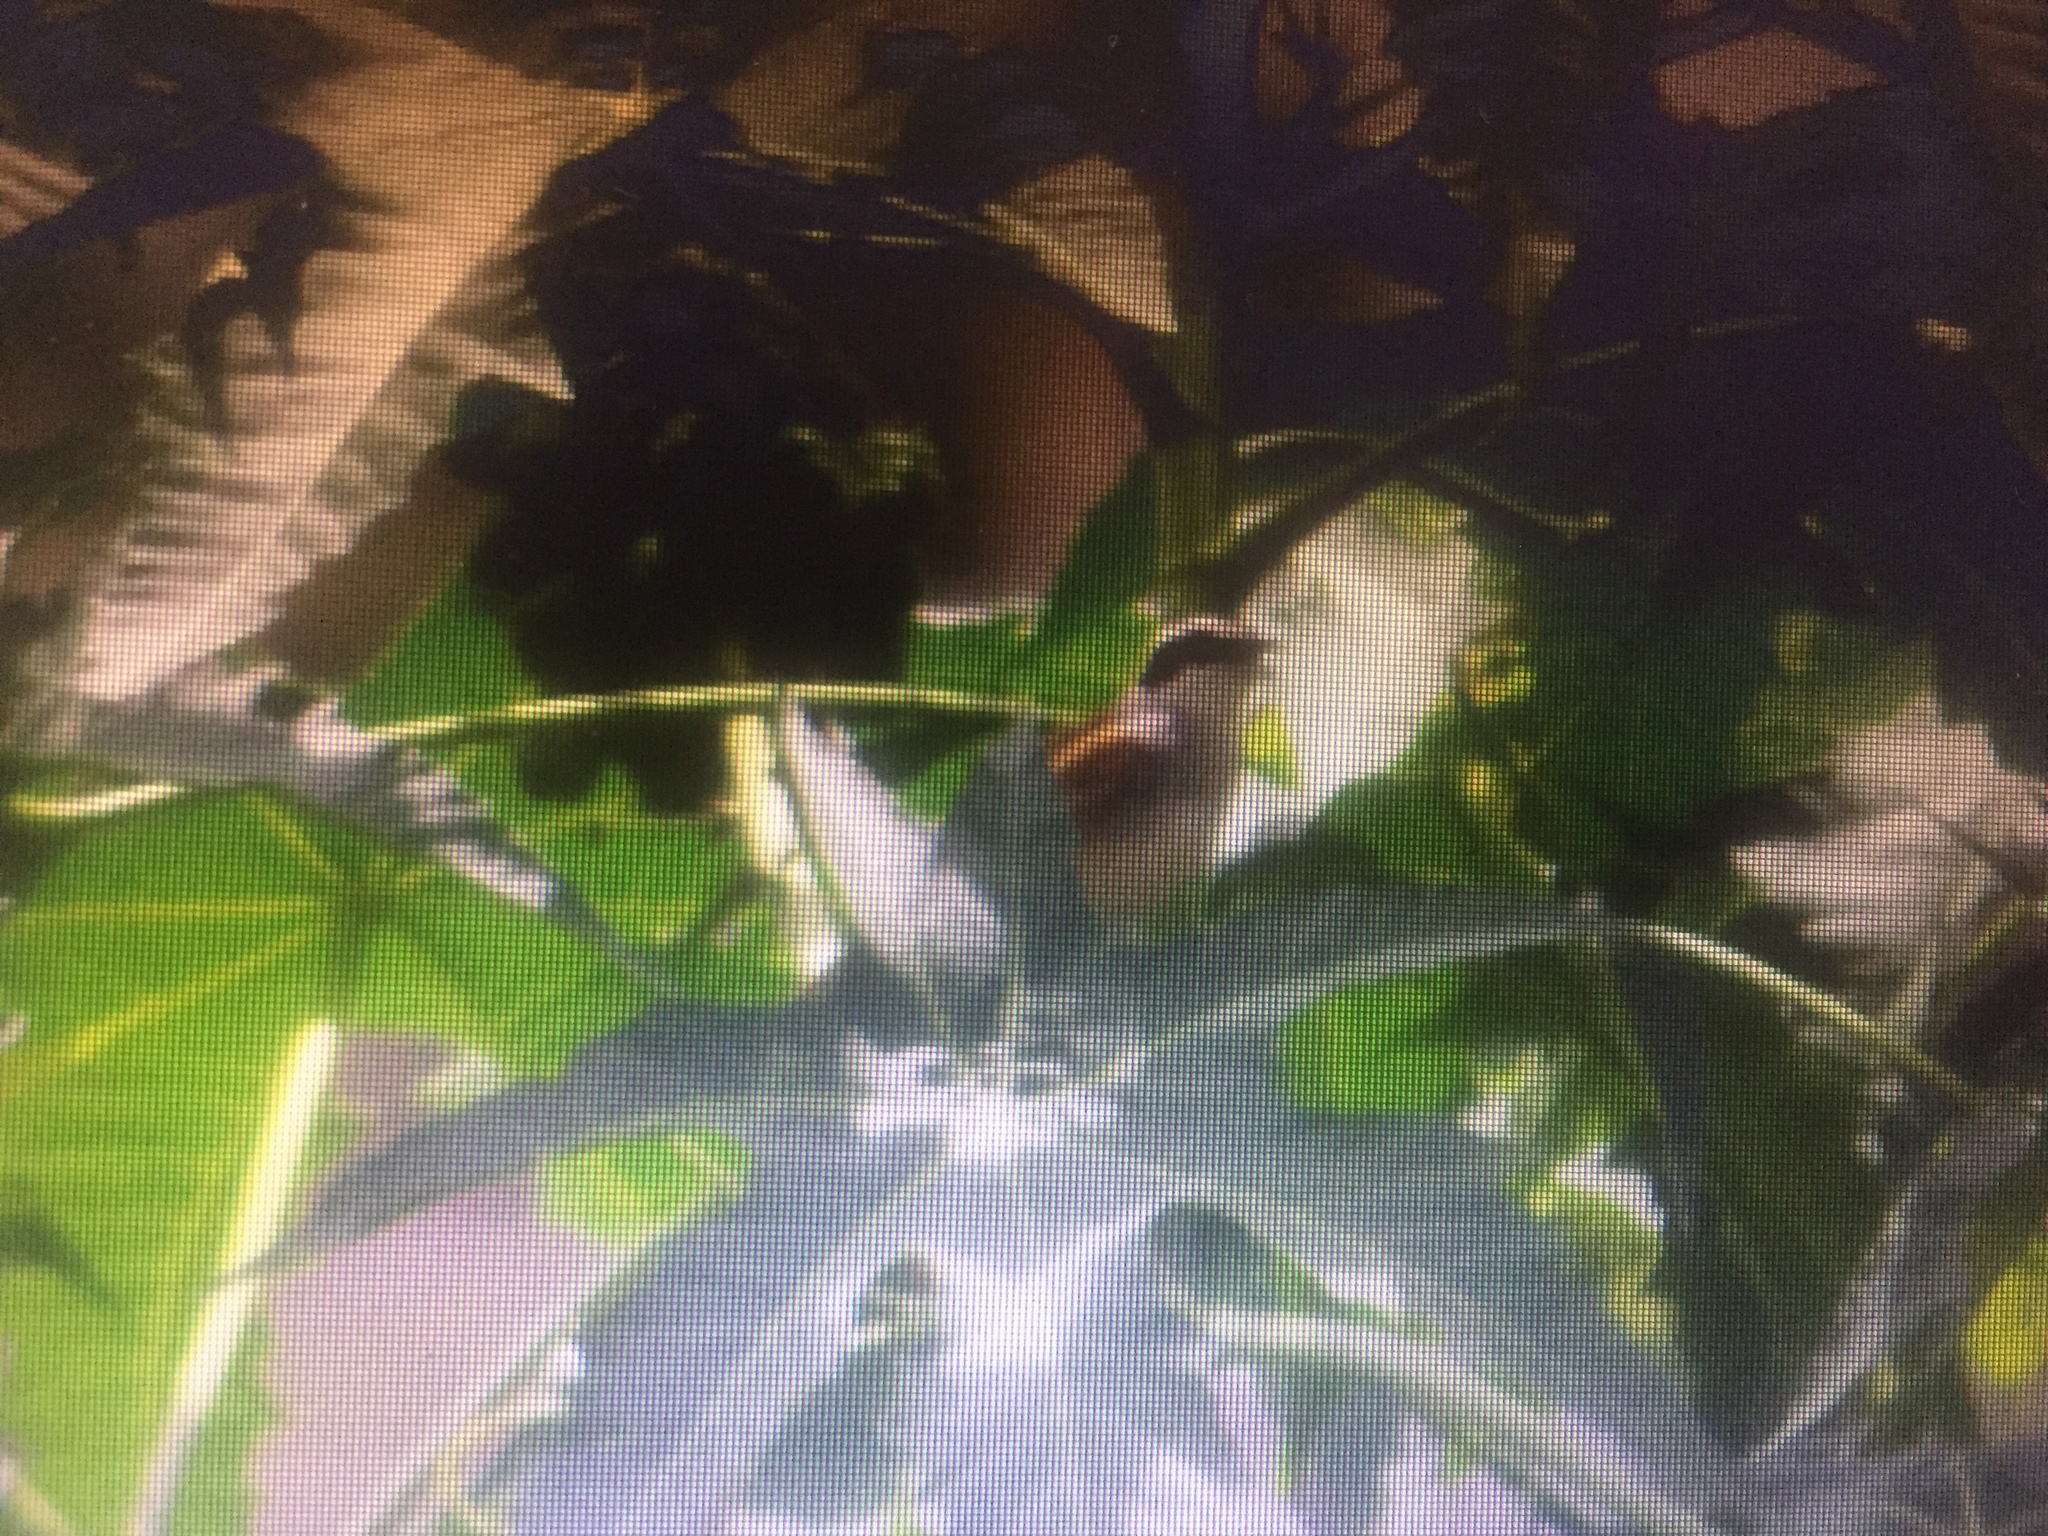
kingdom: Animalia
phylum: Chordata
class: Aves
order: Passeriformes
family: Passerellidae
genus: Peucaea
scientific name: Peucaea ruficauda
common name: Stripe-headed sparrow
